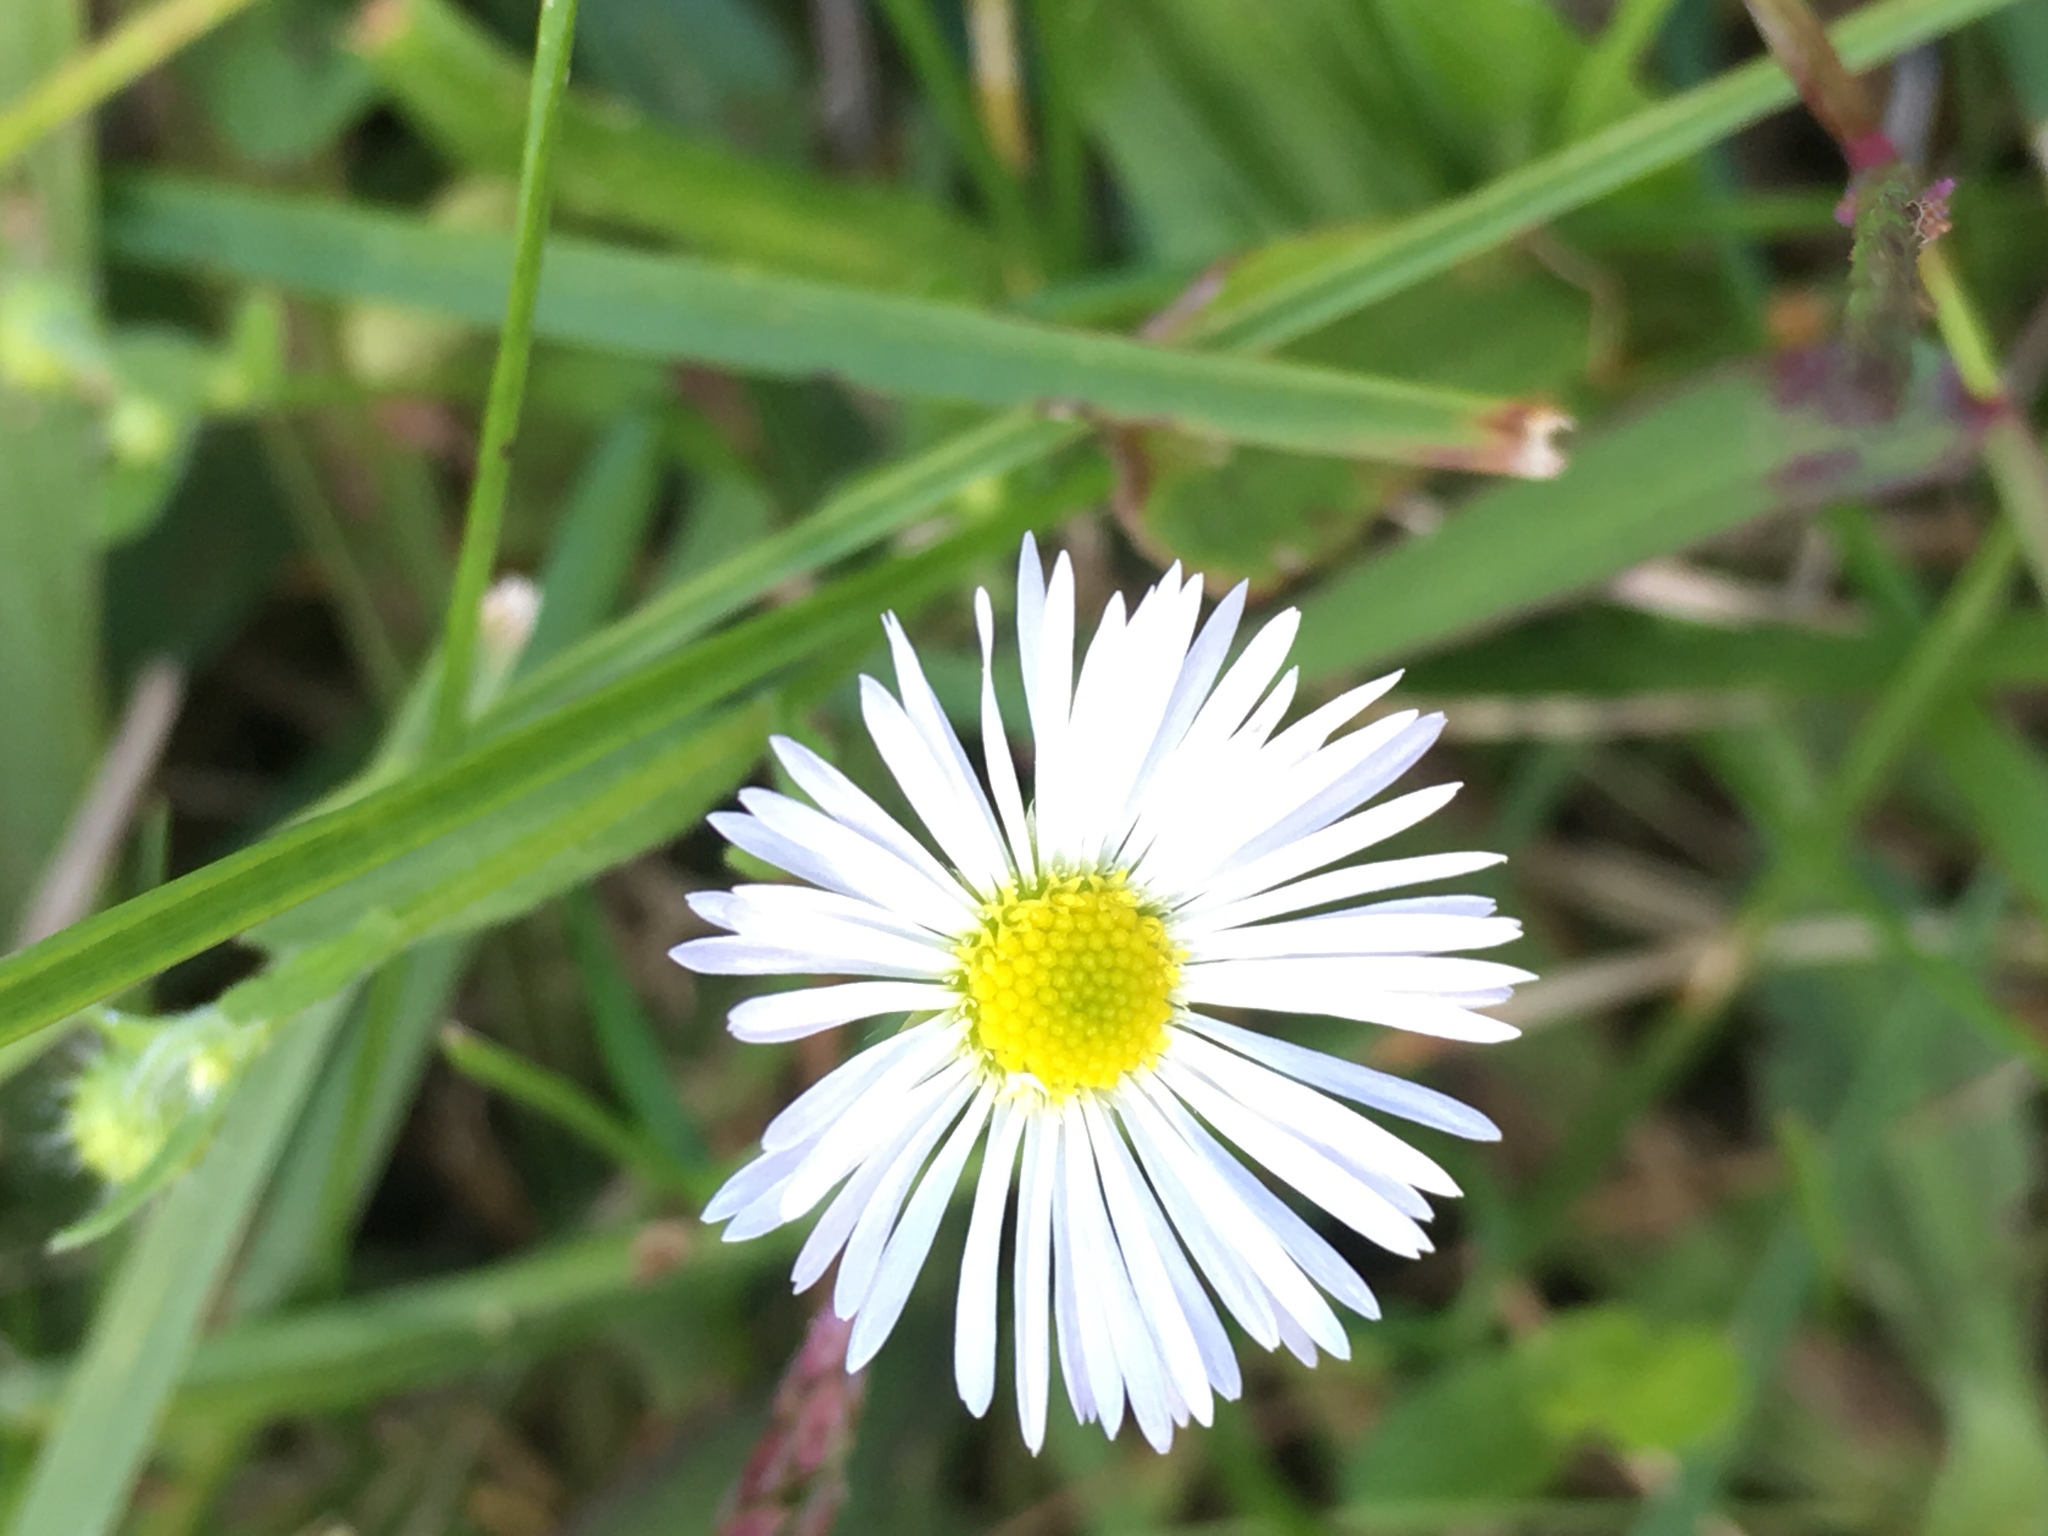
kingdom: Plantae
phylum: Tracheophyta
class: Magnoliopsida
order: Asterales
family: Asteraceae
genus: Erigeron
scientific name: Erigeron strigosus
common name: Common eastern fleabane
